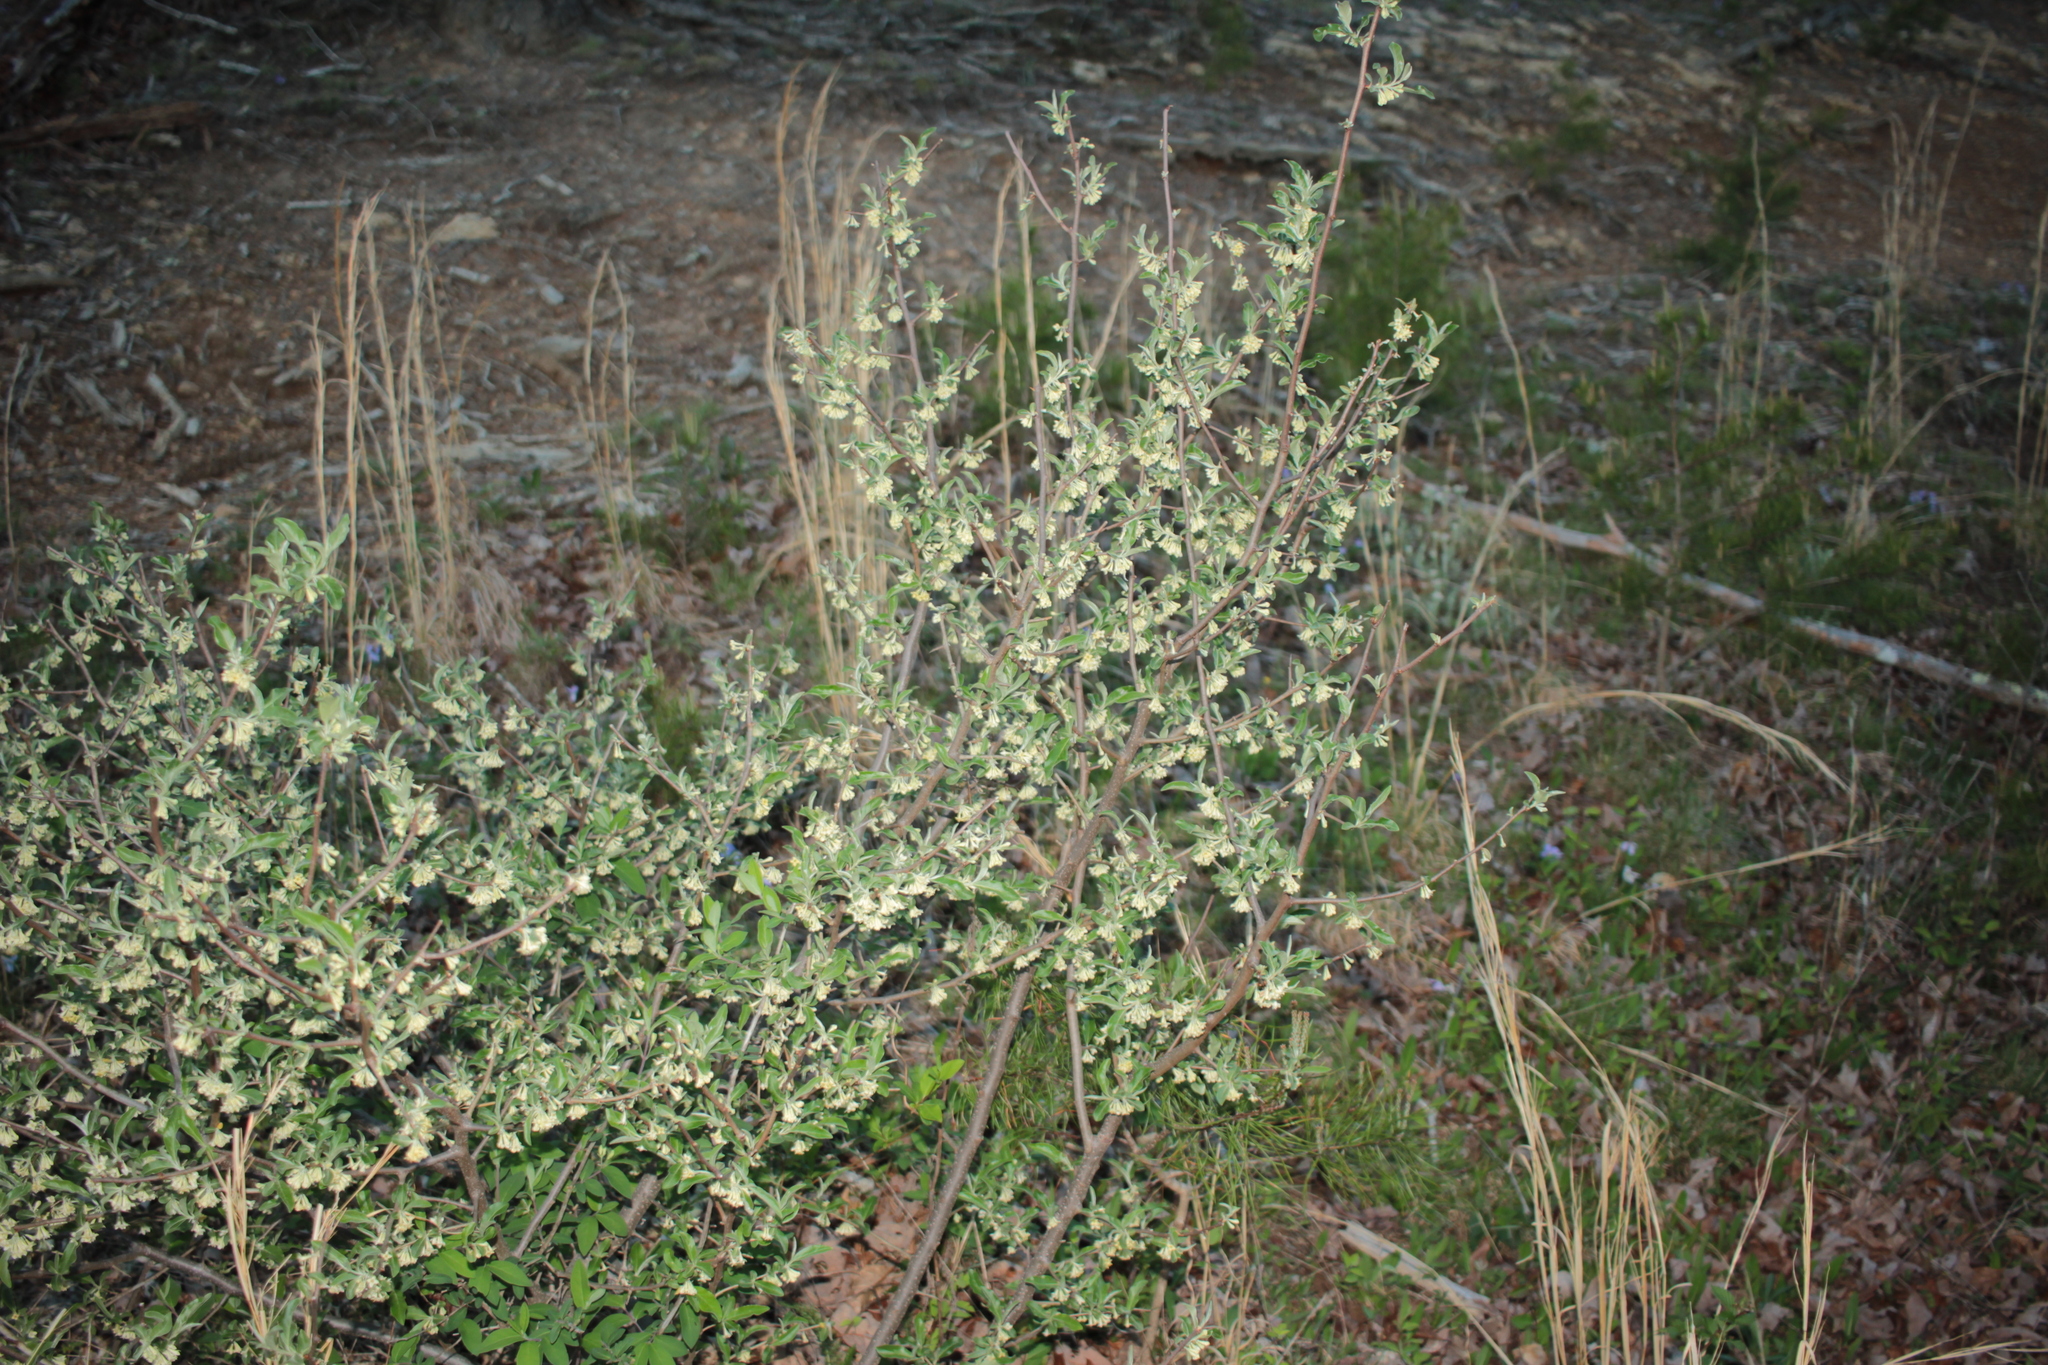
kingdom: Plantae
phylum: Tracheophyta
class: Magnoliopsida
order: Rosales
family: Elaeagnaceae
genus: Elaeagnus
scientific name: Elaeagnus umbellata
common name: Autumn olive
